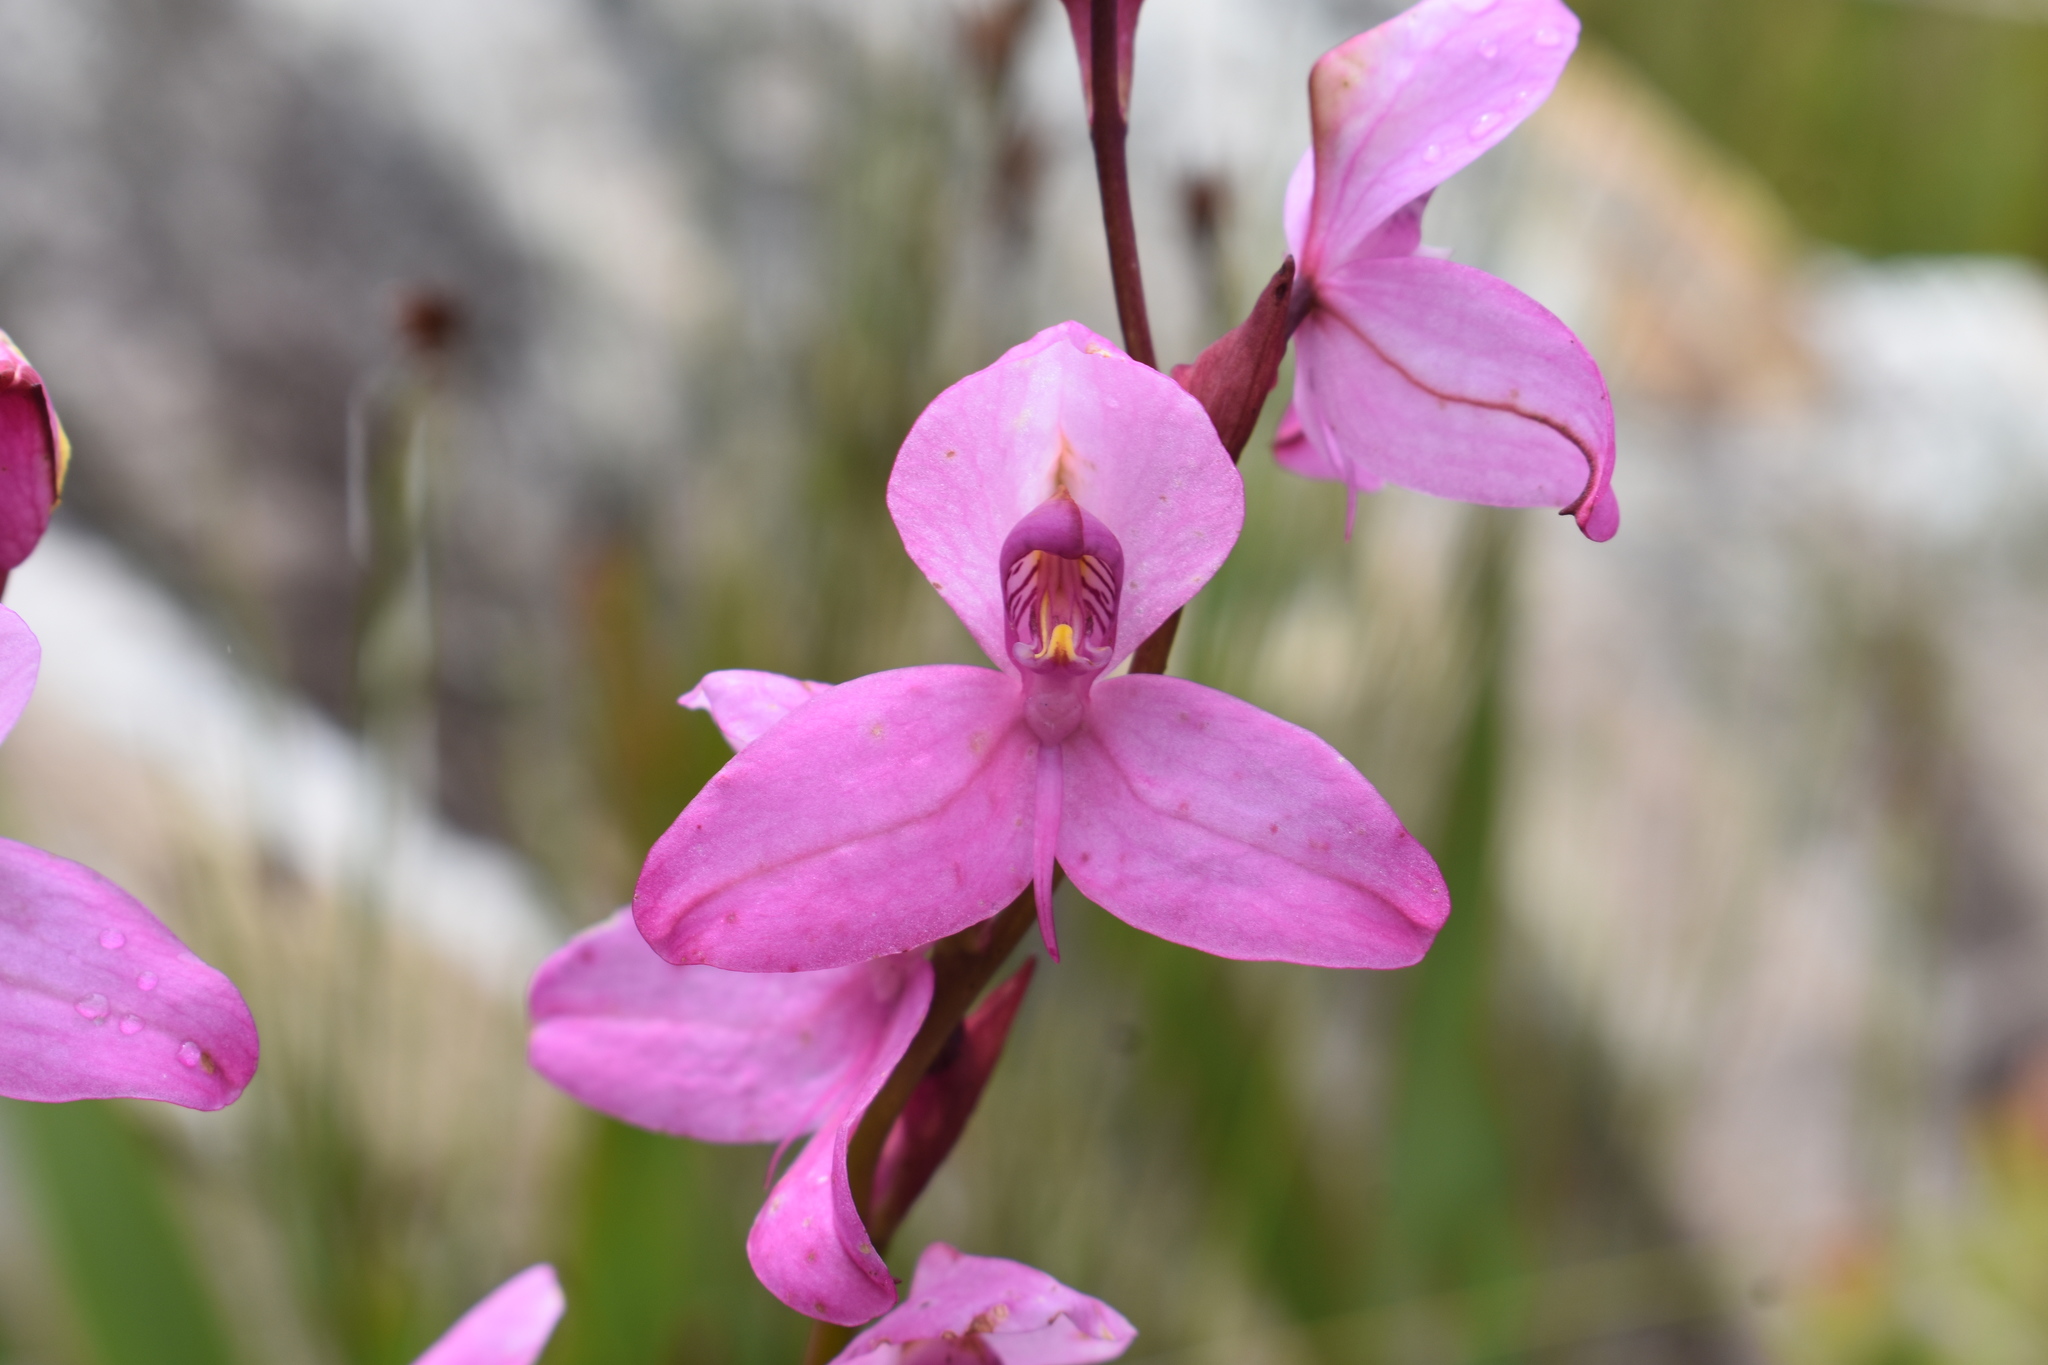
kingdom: Plantae
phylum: Tracheophyta
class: Liliopsida
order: Asparagales
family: Orchidaceae
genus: Disa
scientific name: Disa racemosa
